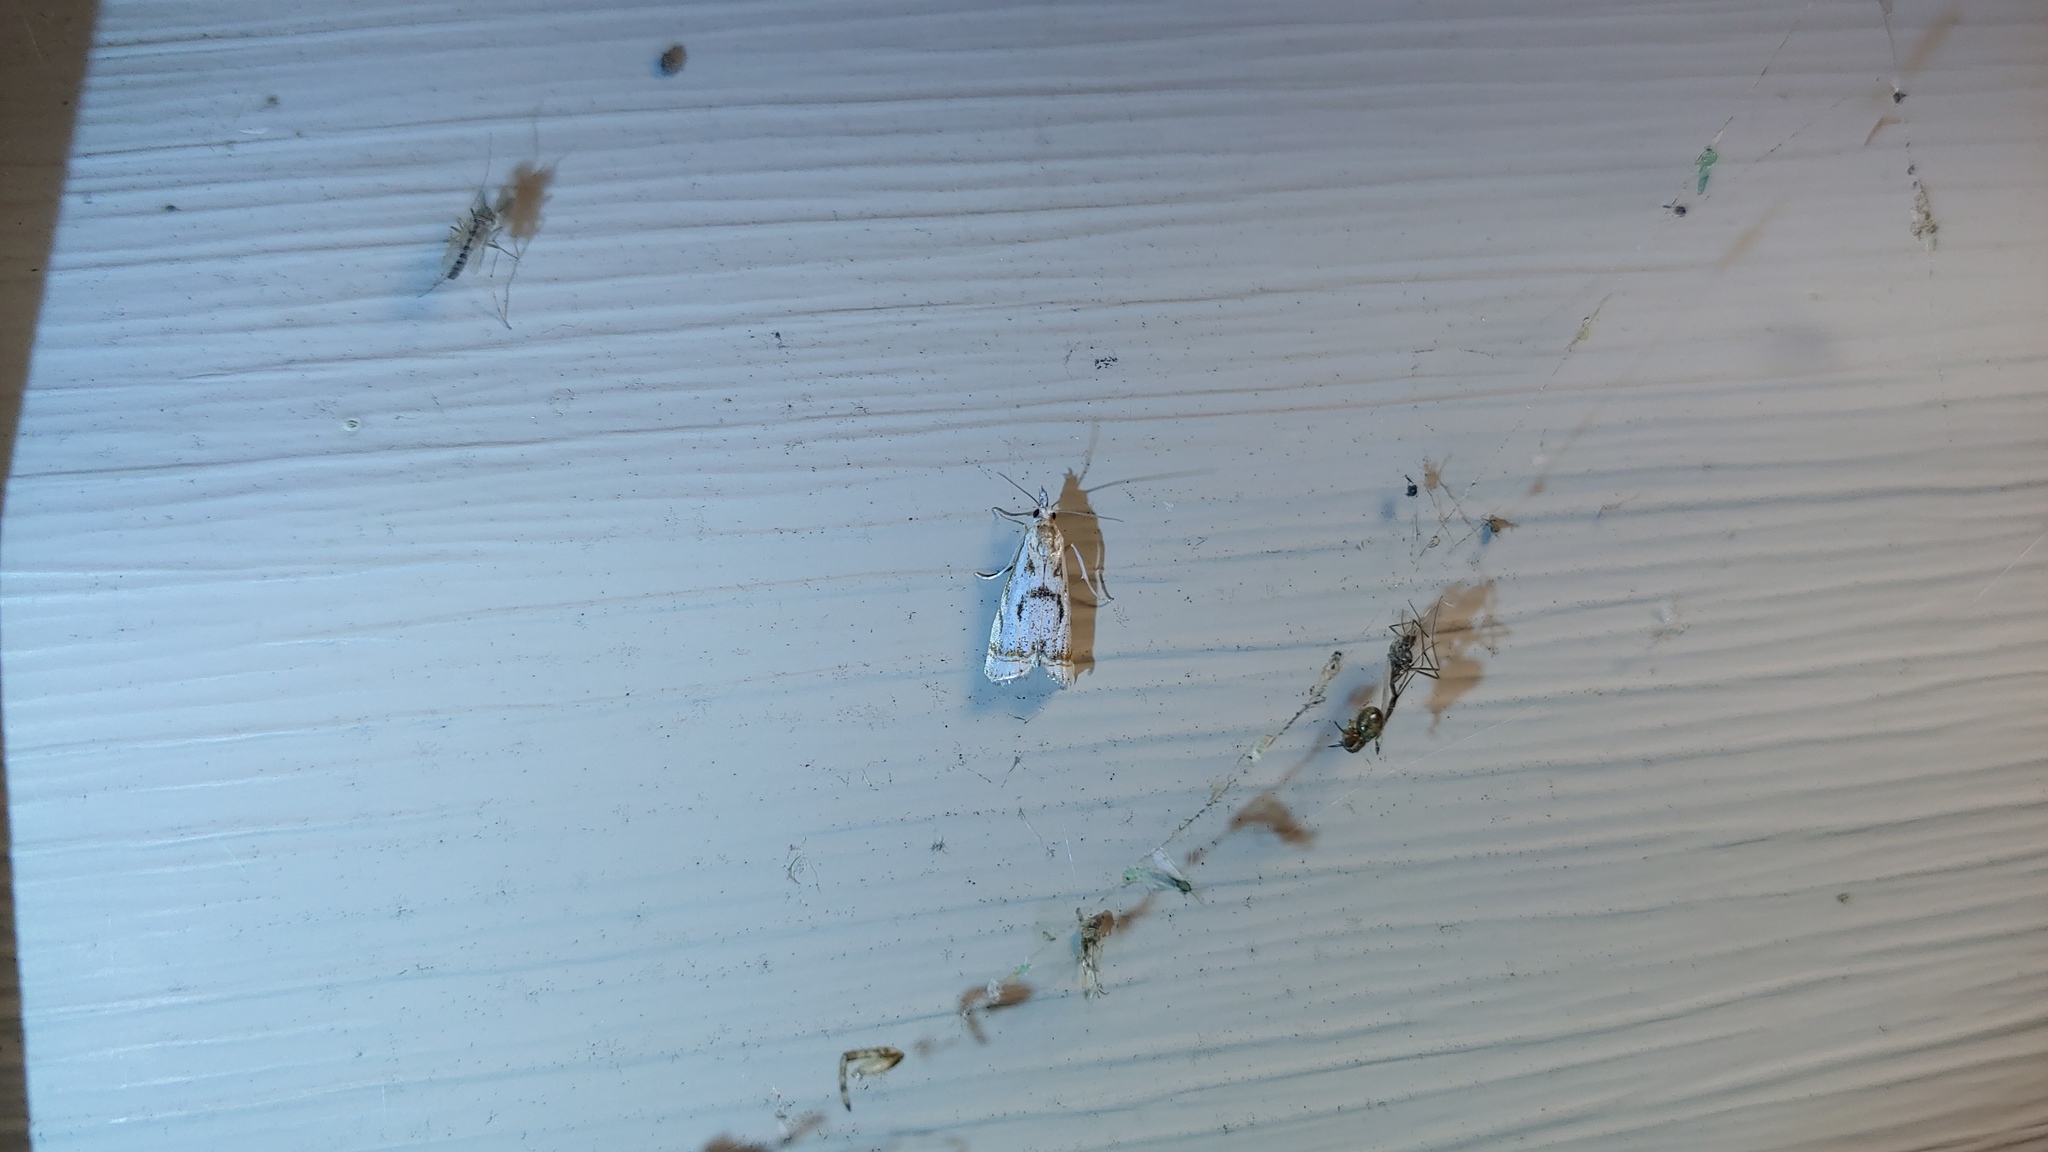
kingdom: Animalia
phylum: Arthropoda
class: Insecta
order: Lepidoptera
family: Crambidae
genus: Microcrambus
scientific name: Microcrambus elegans
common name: Elegant grass-veneer
